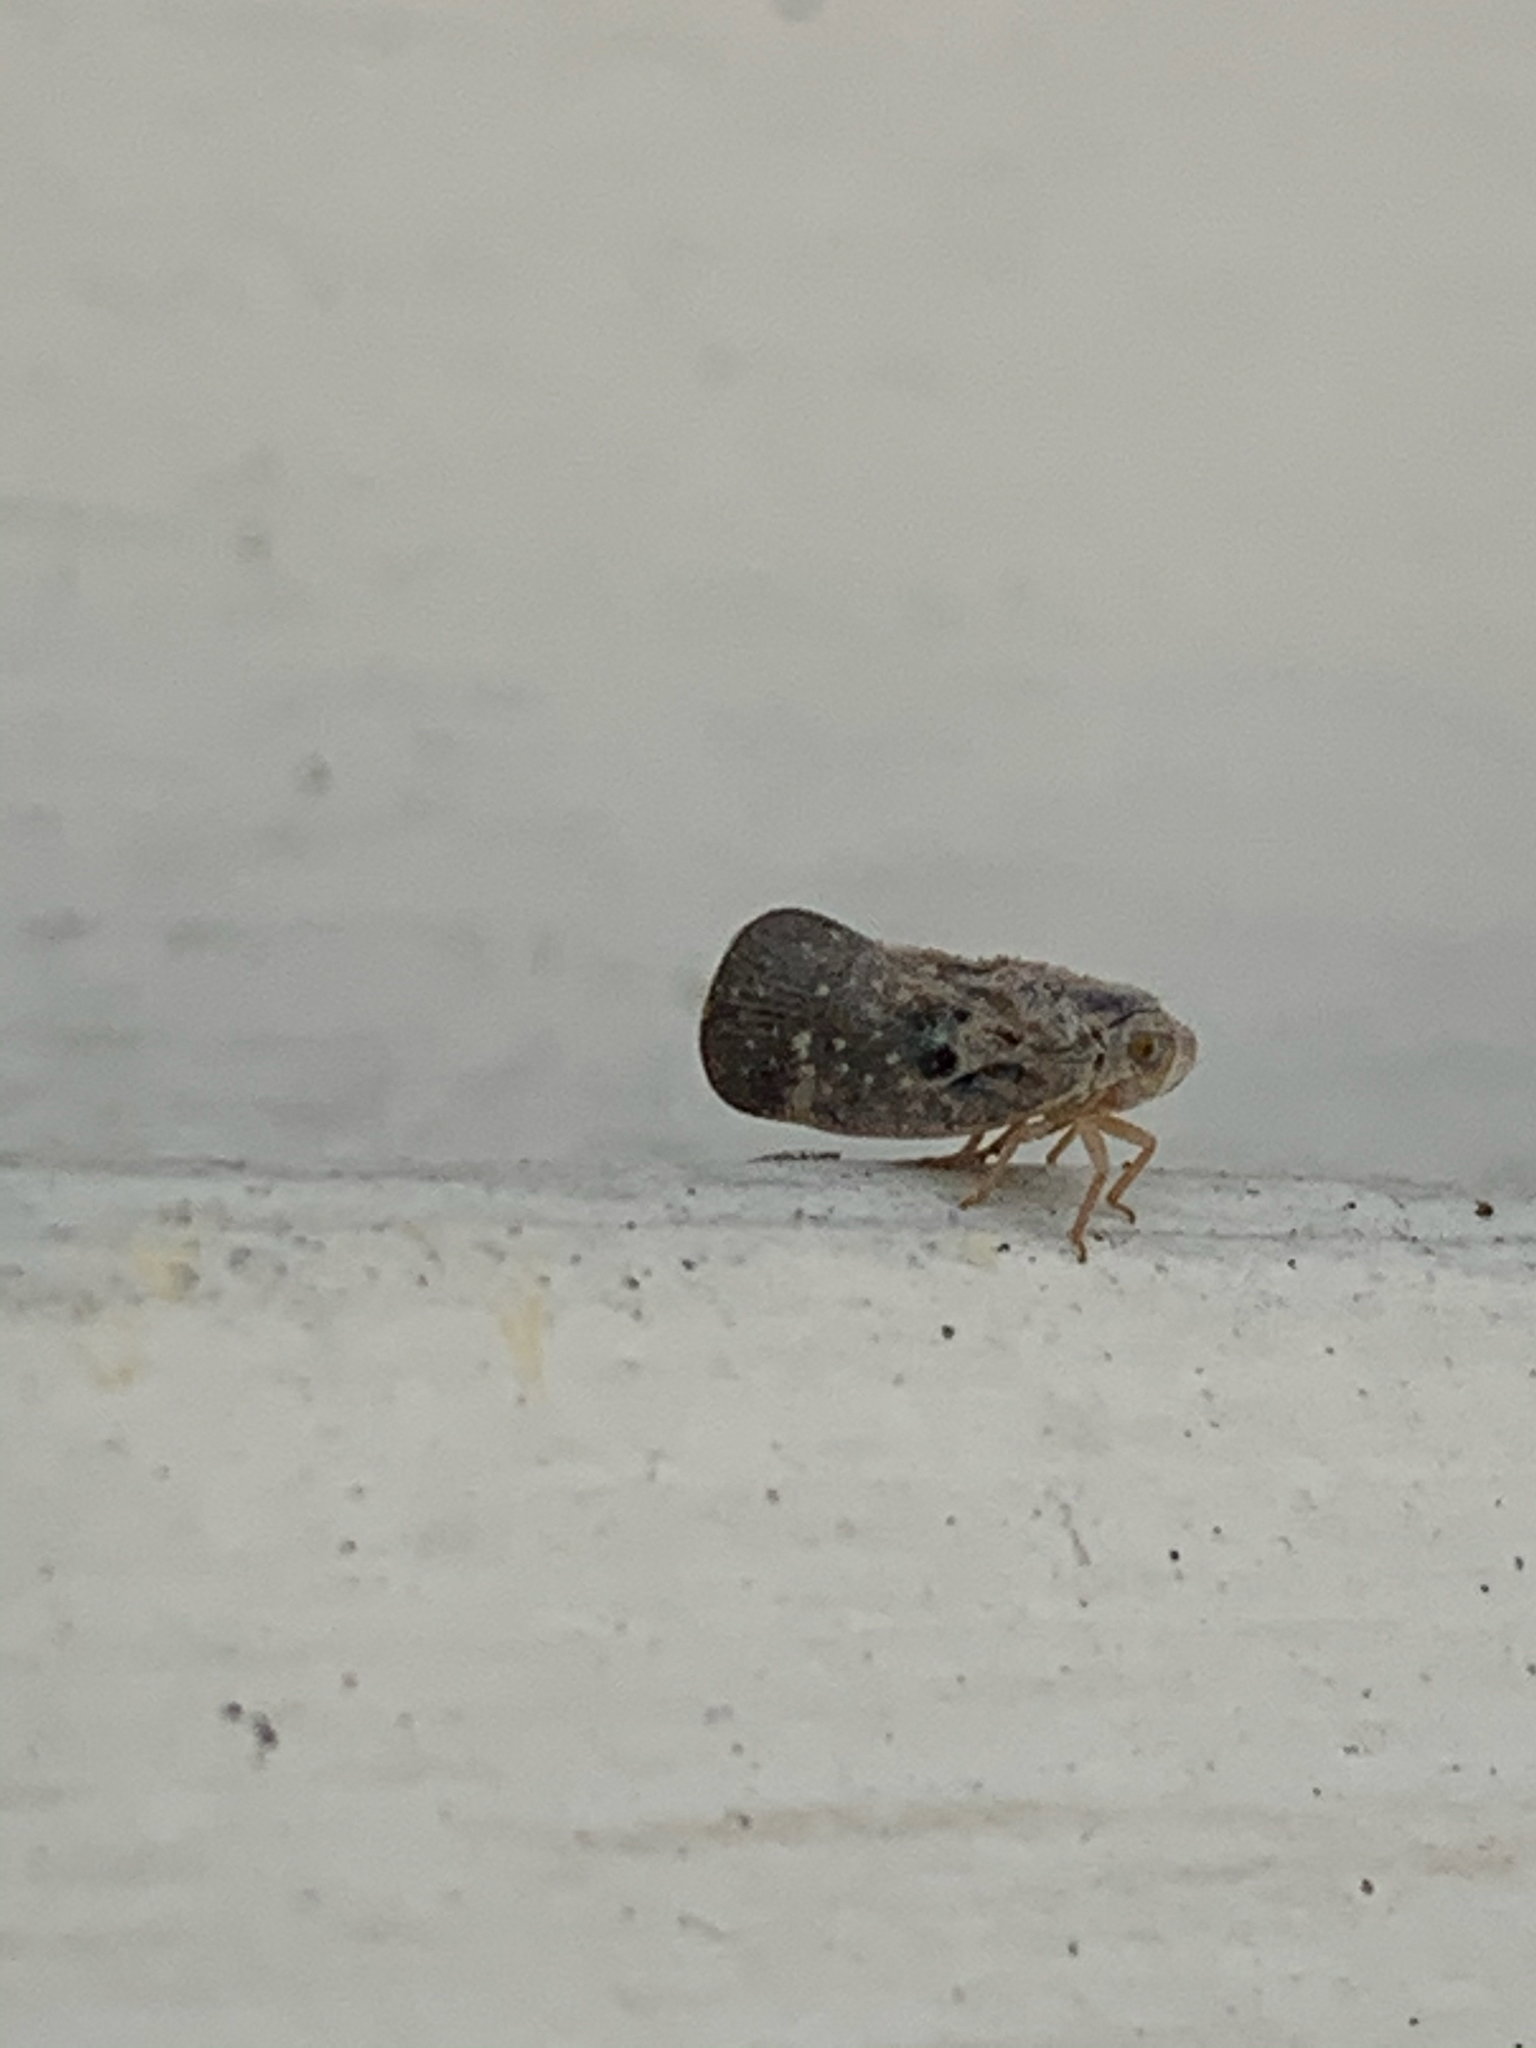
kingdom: Animalia
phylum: Arthropoda
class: Insecta
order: Hemiptera
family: Flatidae
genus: Metcalfa
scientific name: Metcalfa pruinosa
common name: Citrus flatid planthopper
